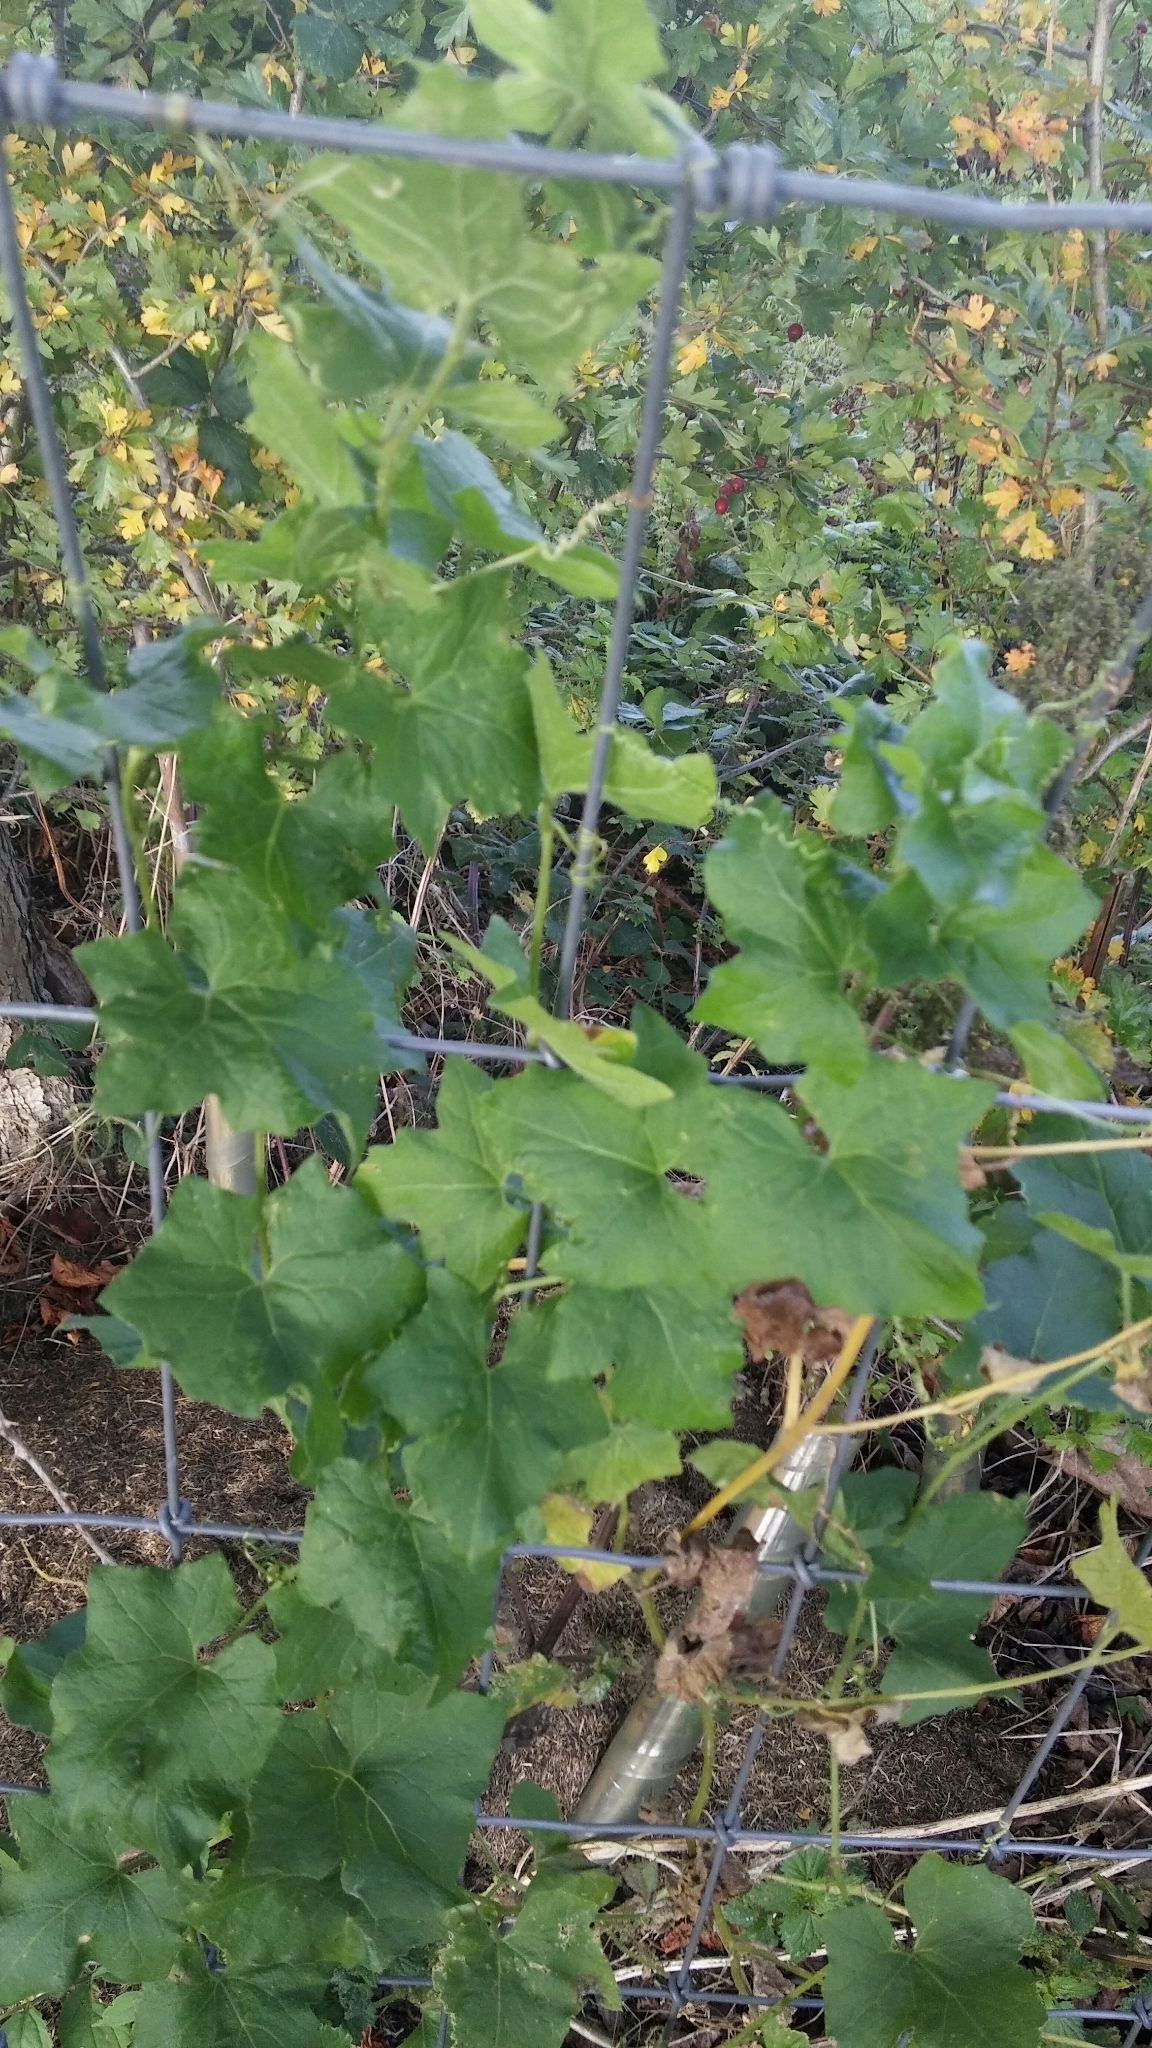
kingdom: Plantae
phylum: Tracheophyta
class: Magnoliopsida
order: Cucurbitales
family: Cucurbitaceae
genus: Bryonia
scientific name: Bryonia cretica
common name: Cretan bryony
